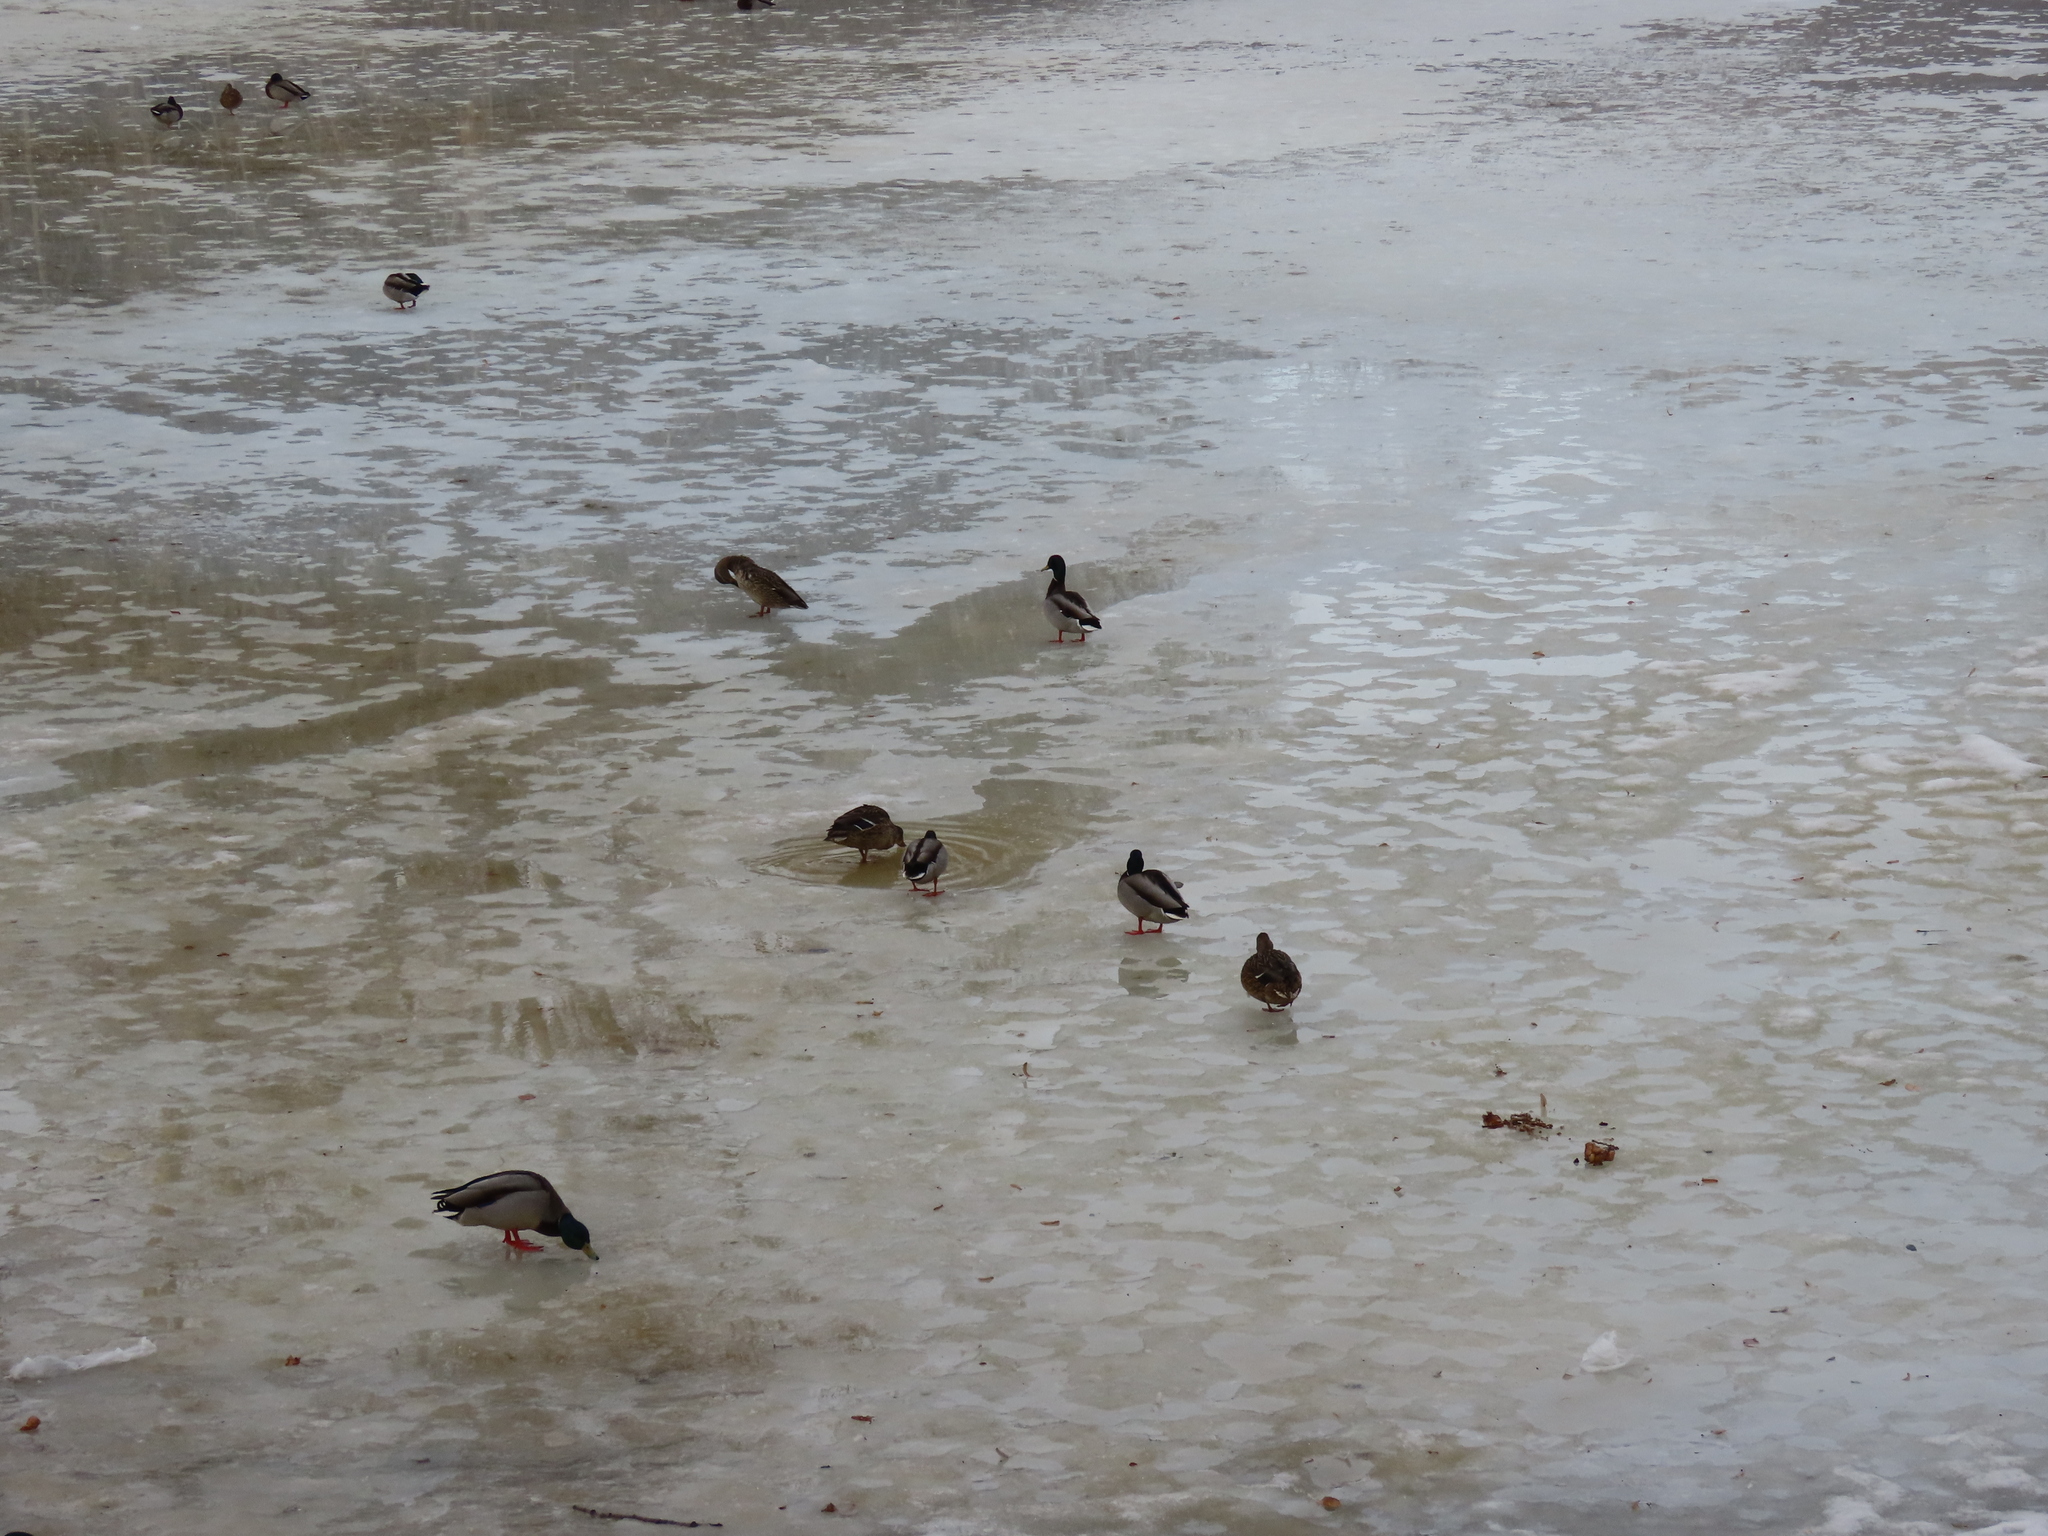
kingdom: Animalia
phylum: Chordata
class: Aves
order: Anseriformes
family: Anatidae
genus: Anas
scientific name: Anas platyrhynchos
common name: Mallard
